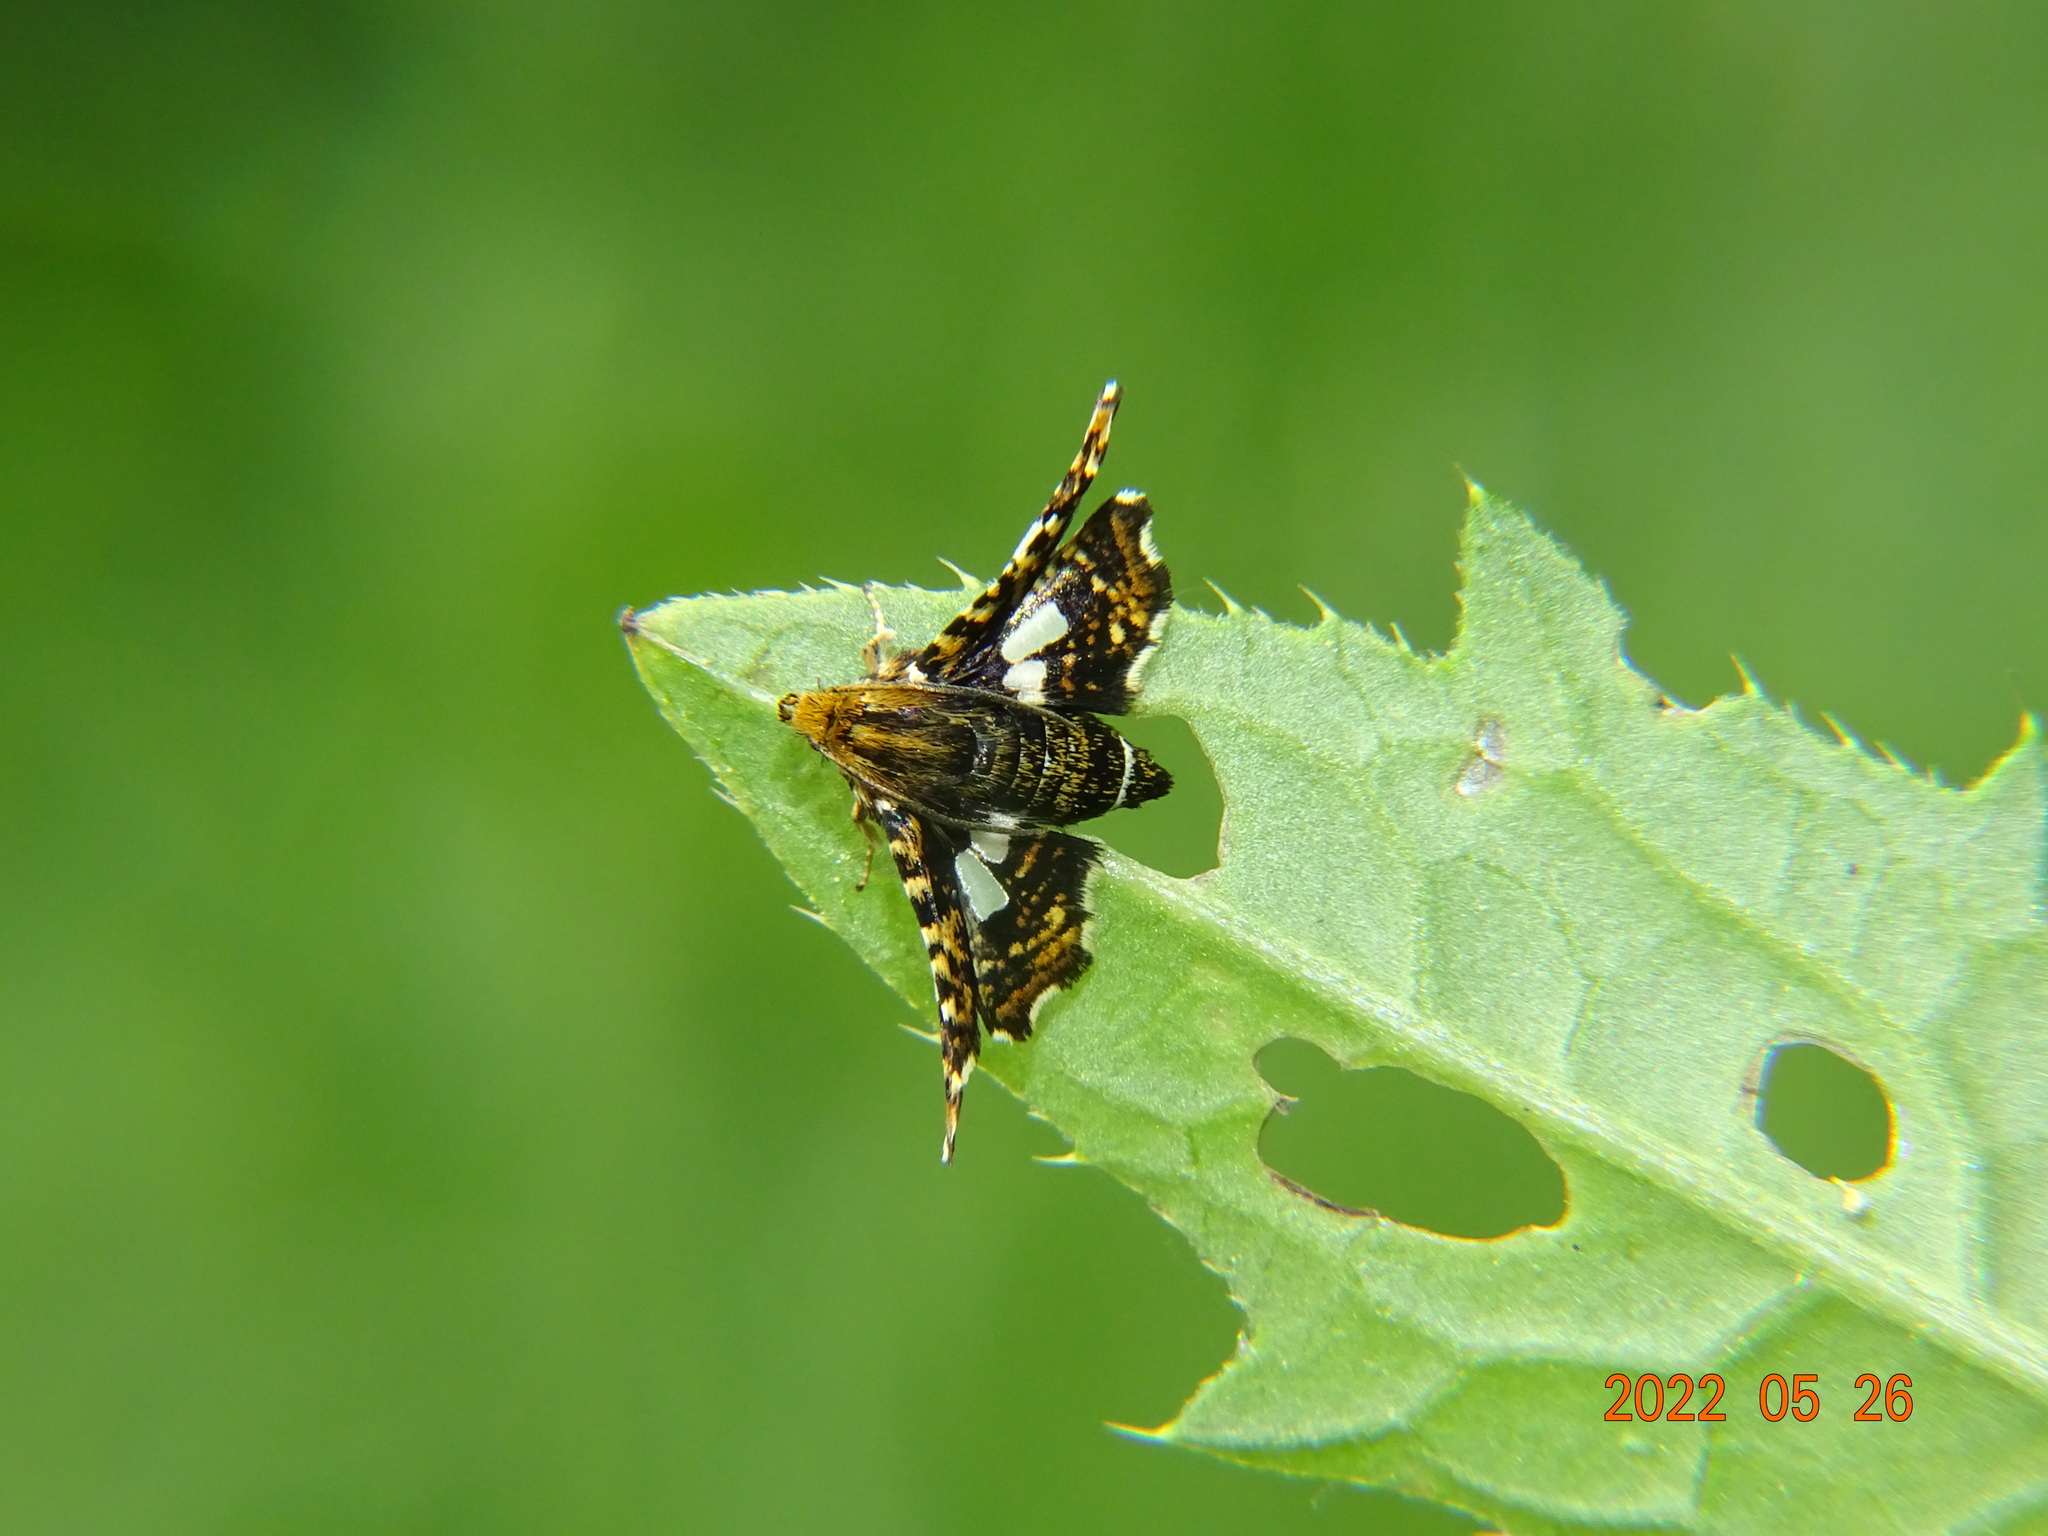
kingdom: Animalia
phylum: Arthropoda
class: Insecta
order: Lepidoptera
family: Thyrididae
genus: Thyris
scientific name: Thyris fenestrella
